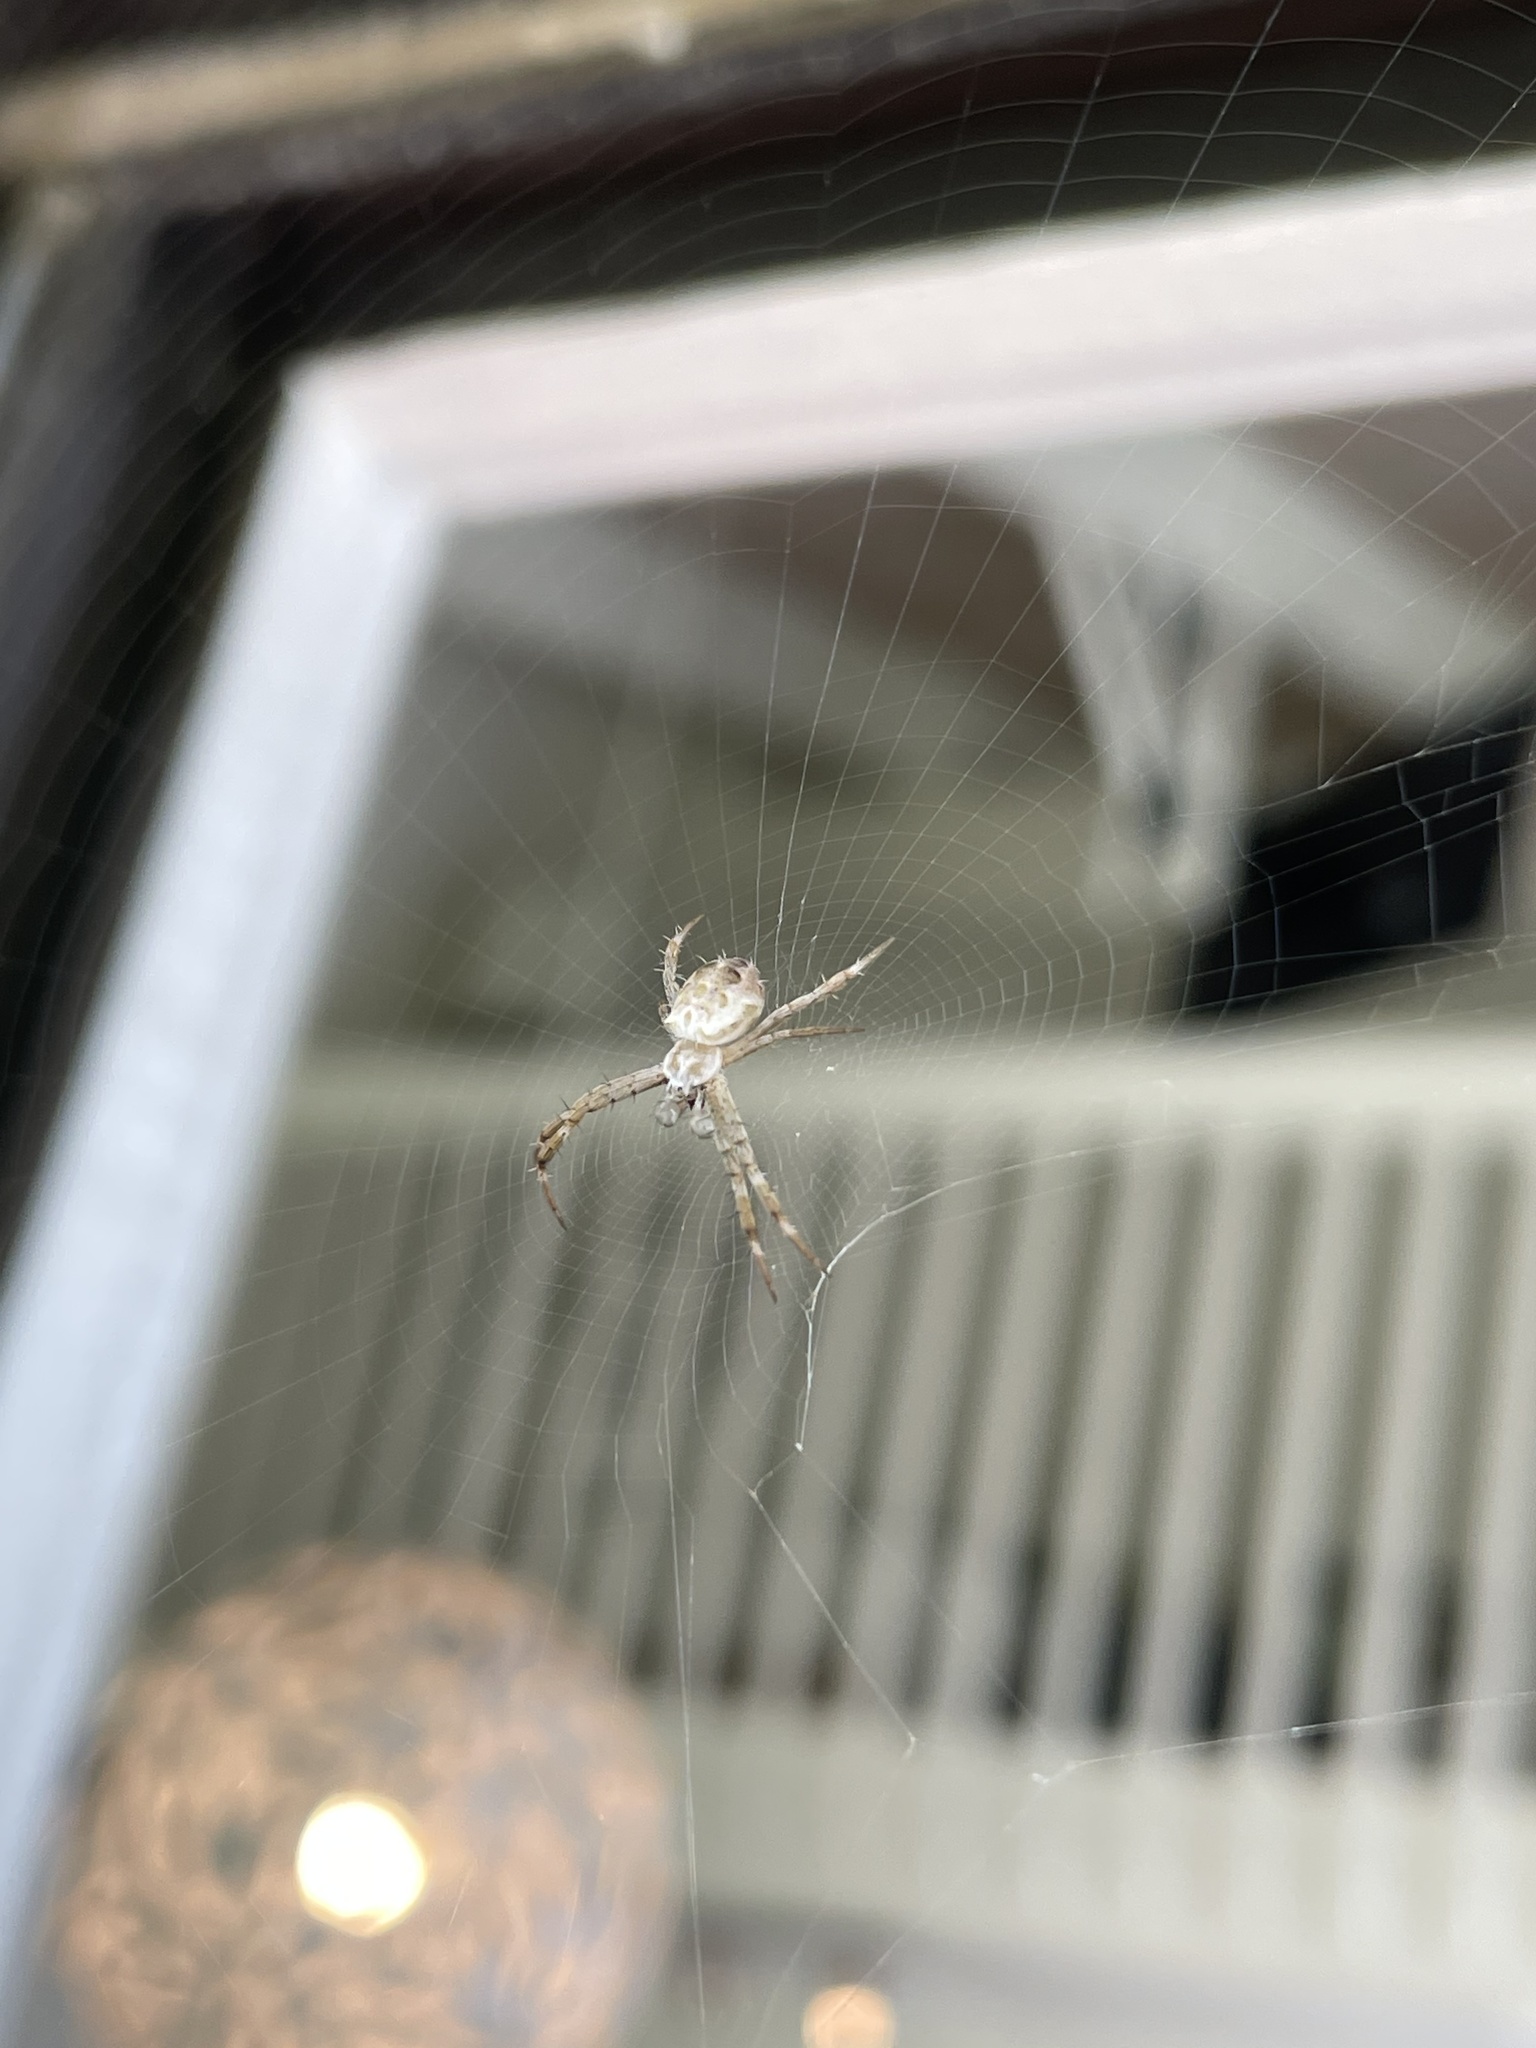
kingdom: Animalia
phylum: Arthropoda
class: Arachnida
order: Araneae
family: Araneidae
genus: Argiope
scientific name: Argiope appensa
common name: Garden spider
